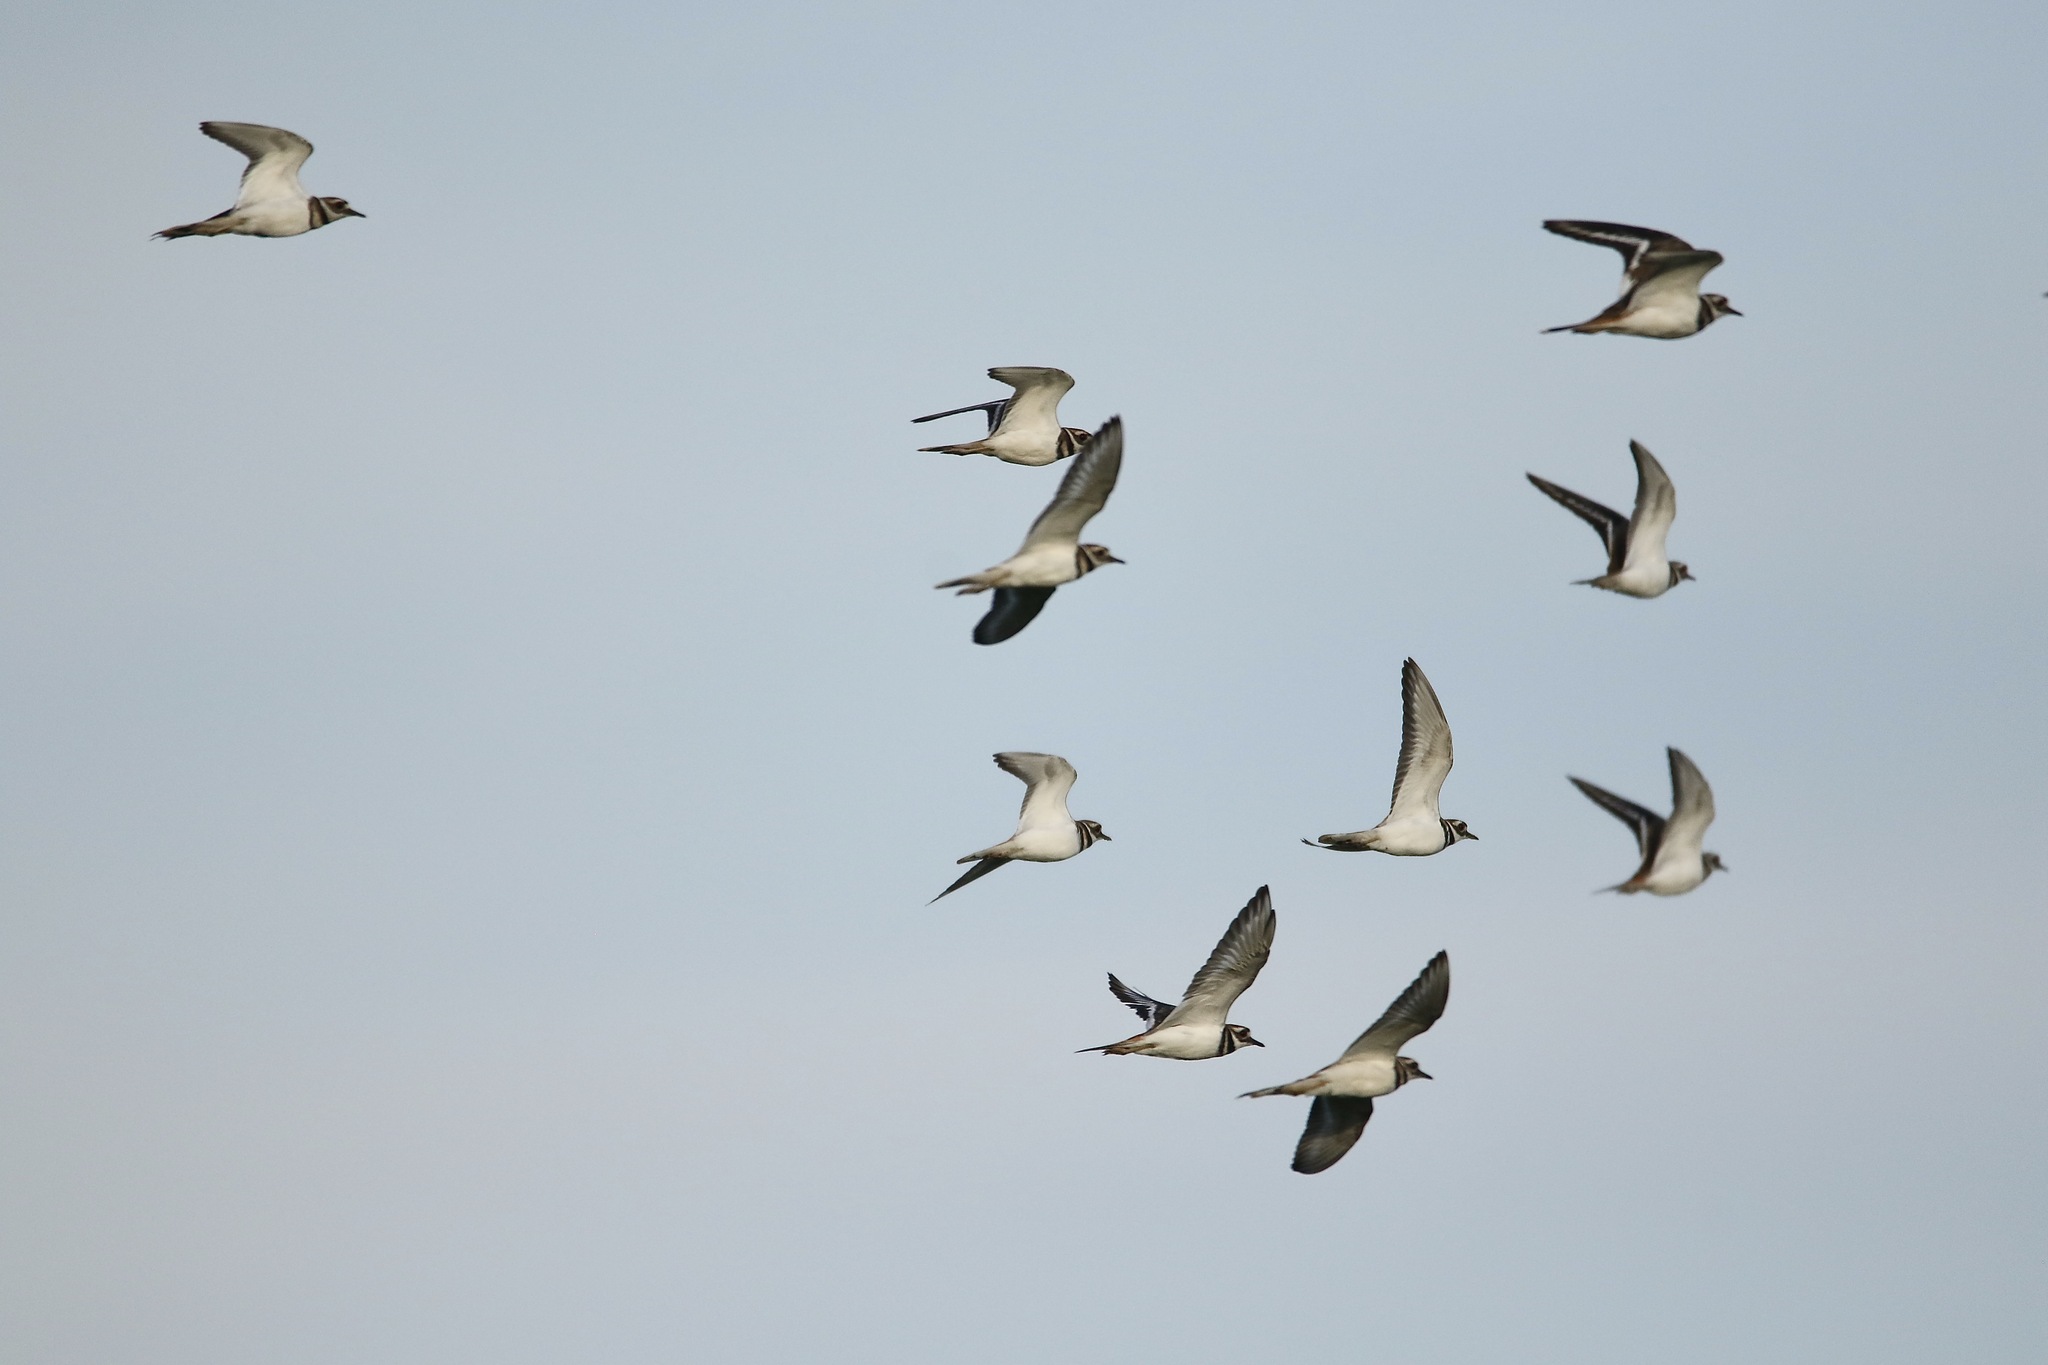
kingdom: Animalia
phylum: Chordata
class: Aves
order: Charadriiformes
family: Charadriidae
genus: Charadrius
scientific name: Charadrius vociferus
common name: Killdeer
